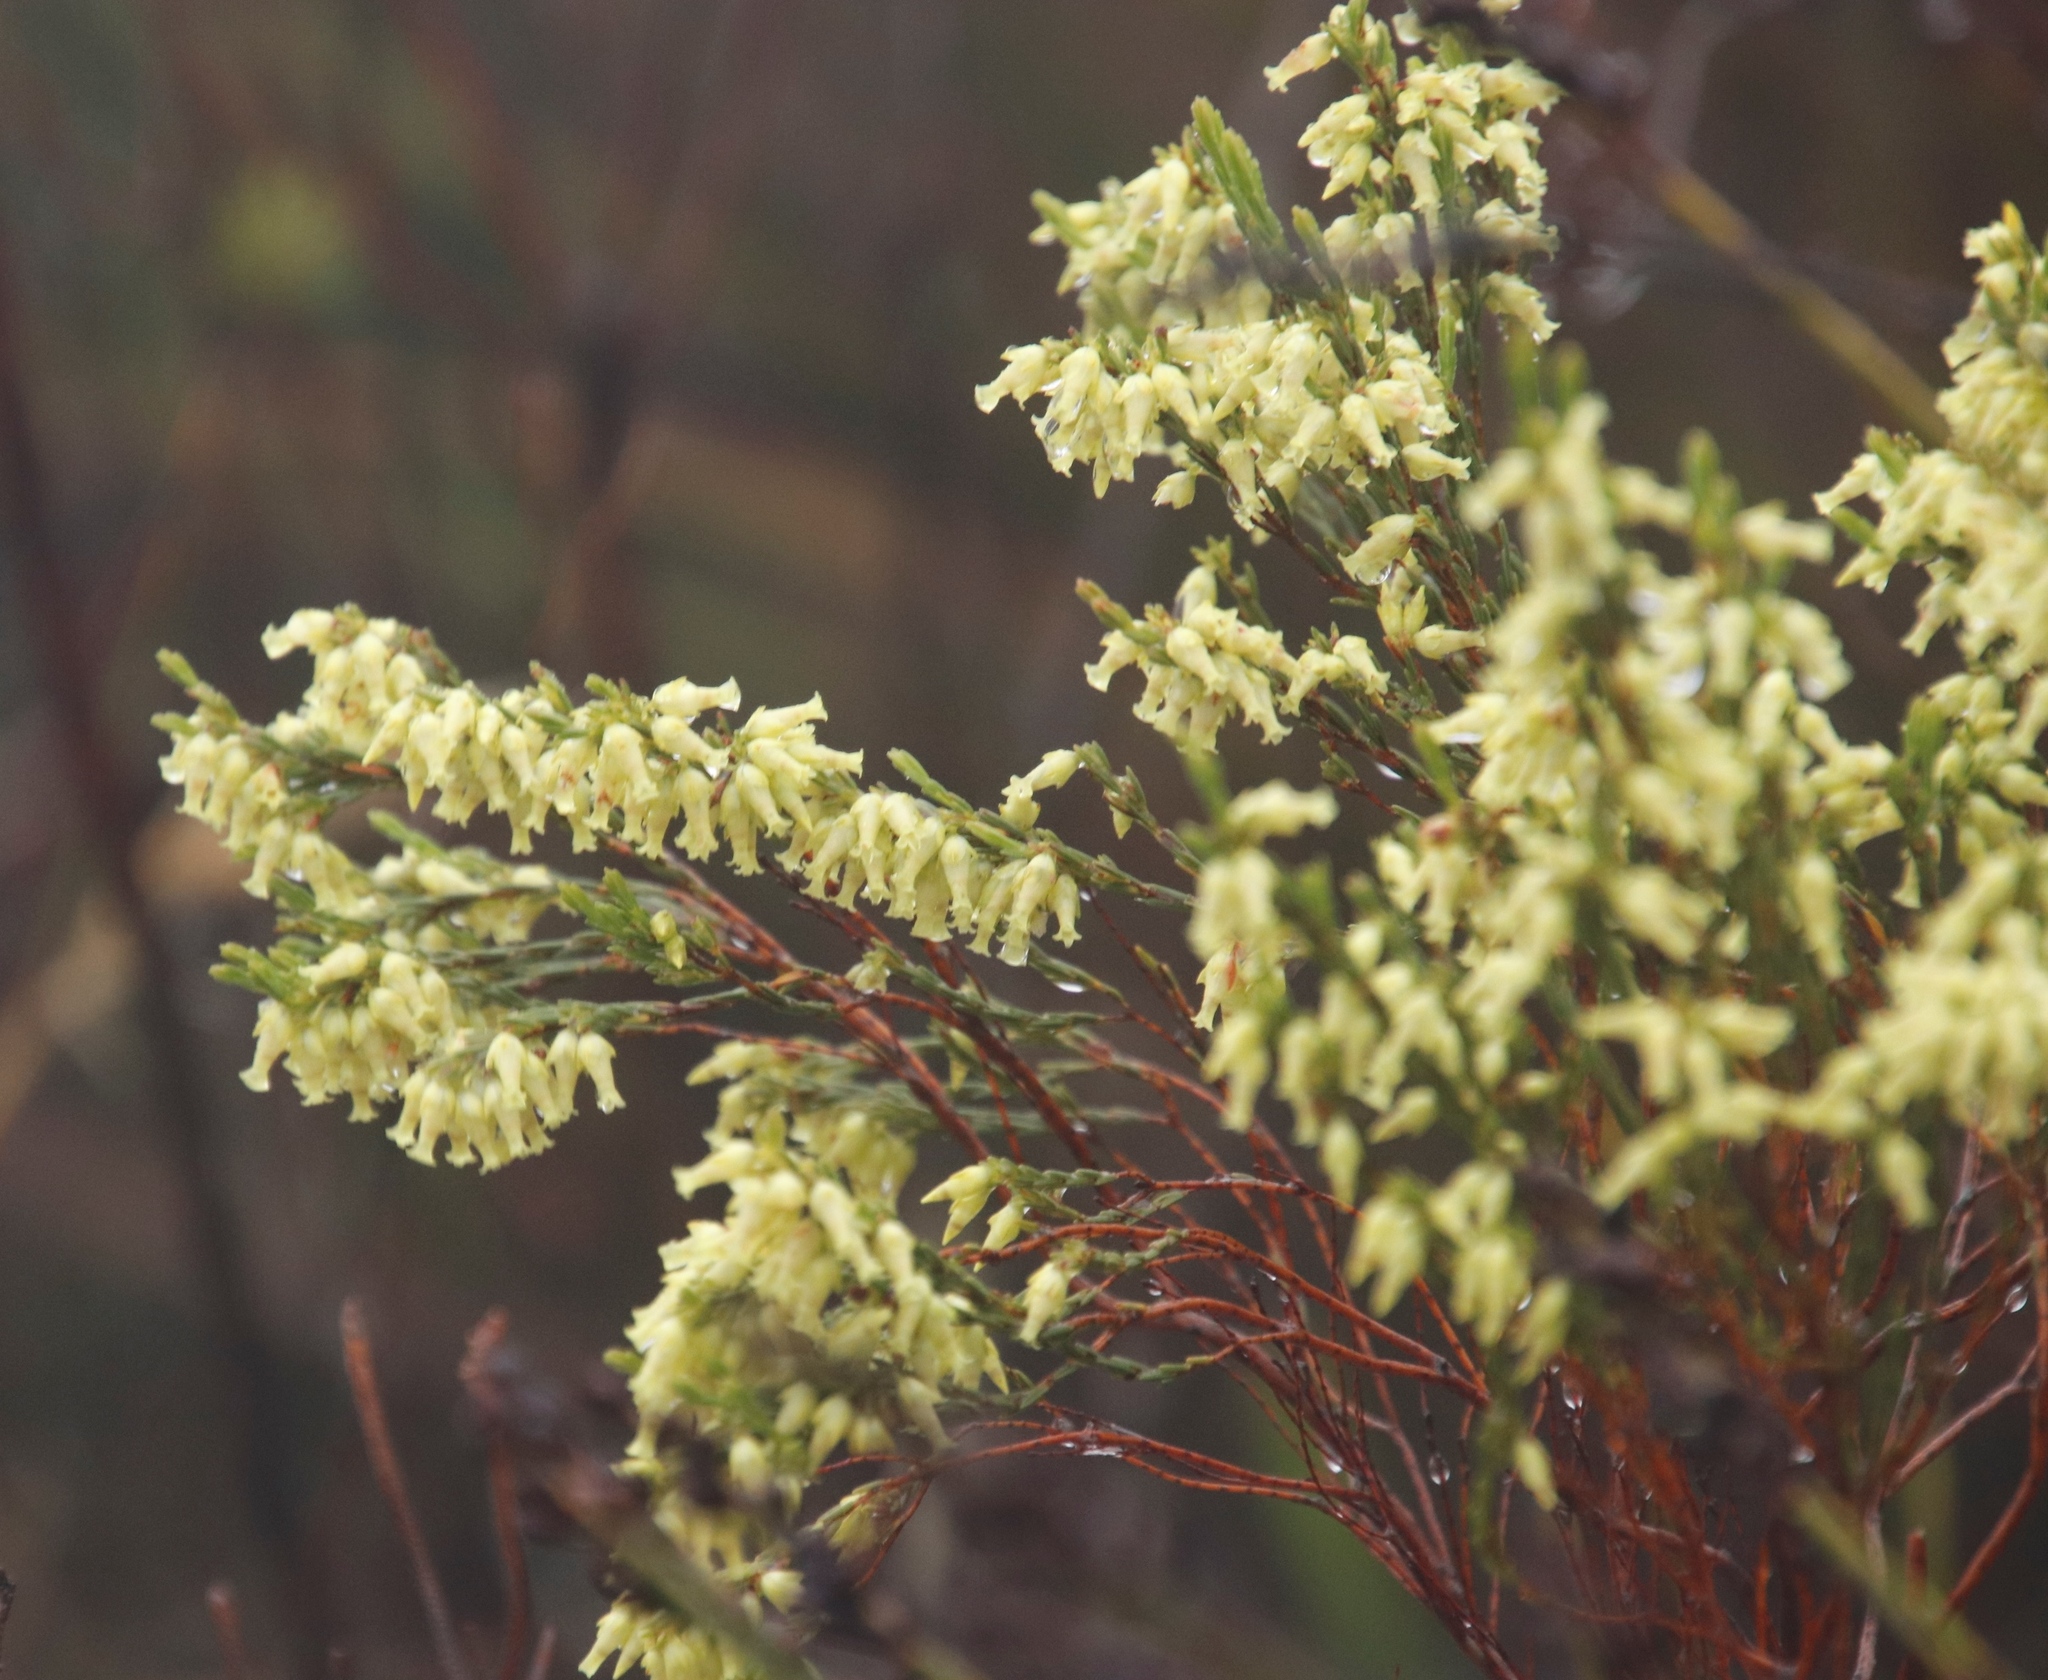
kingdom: Plantae
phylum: Tracheophyta
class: Magnoliopsida
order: Ericales
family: Ericaceae
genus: Erica
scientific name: Erica lutea
